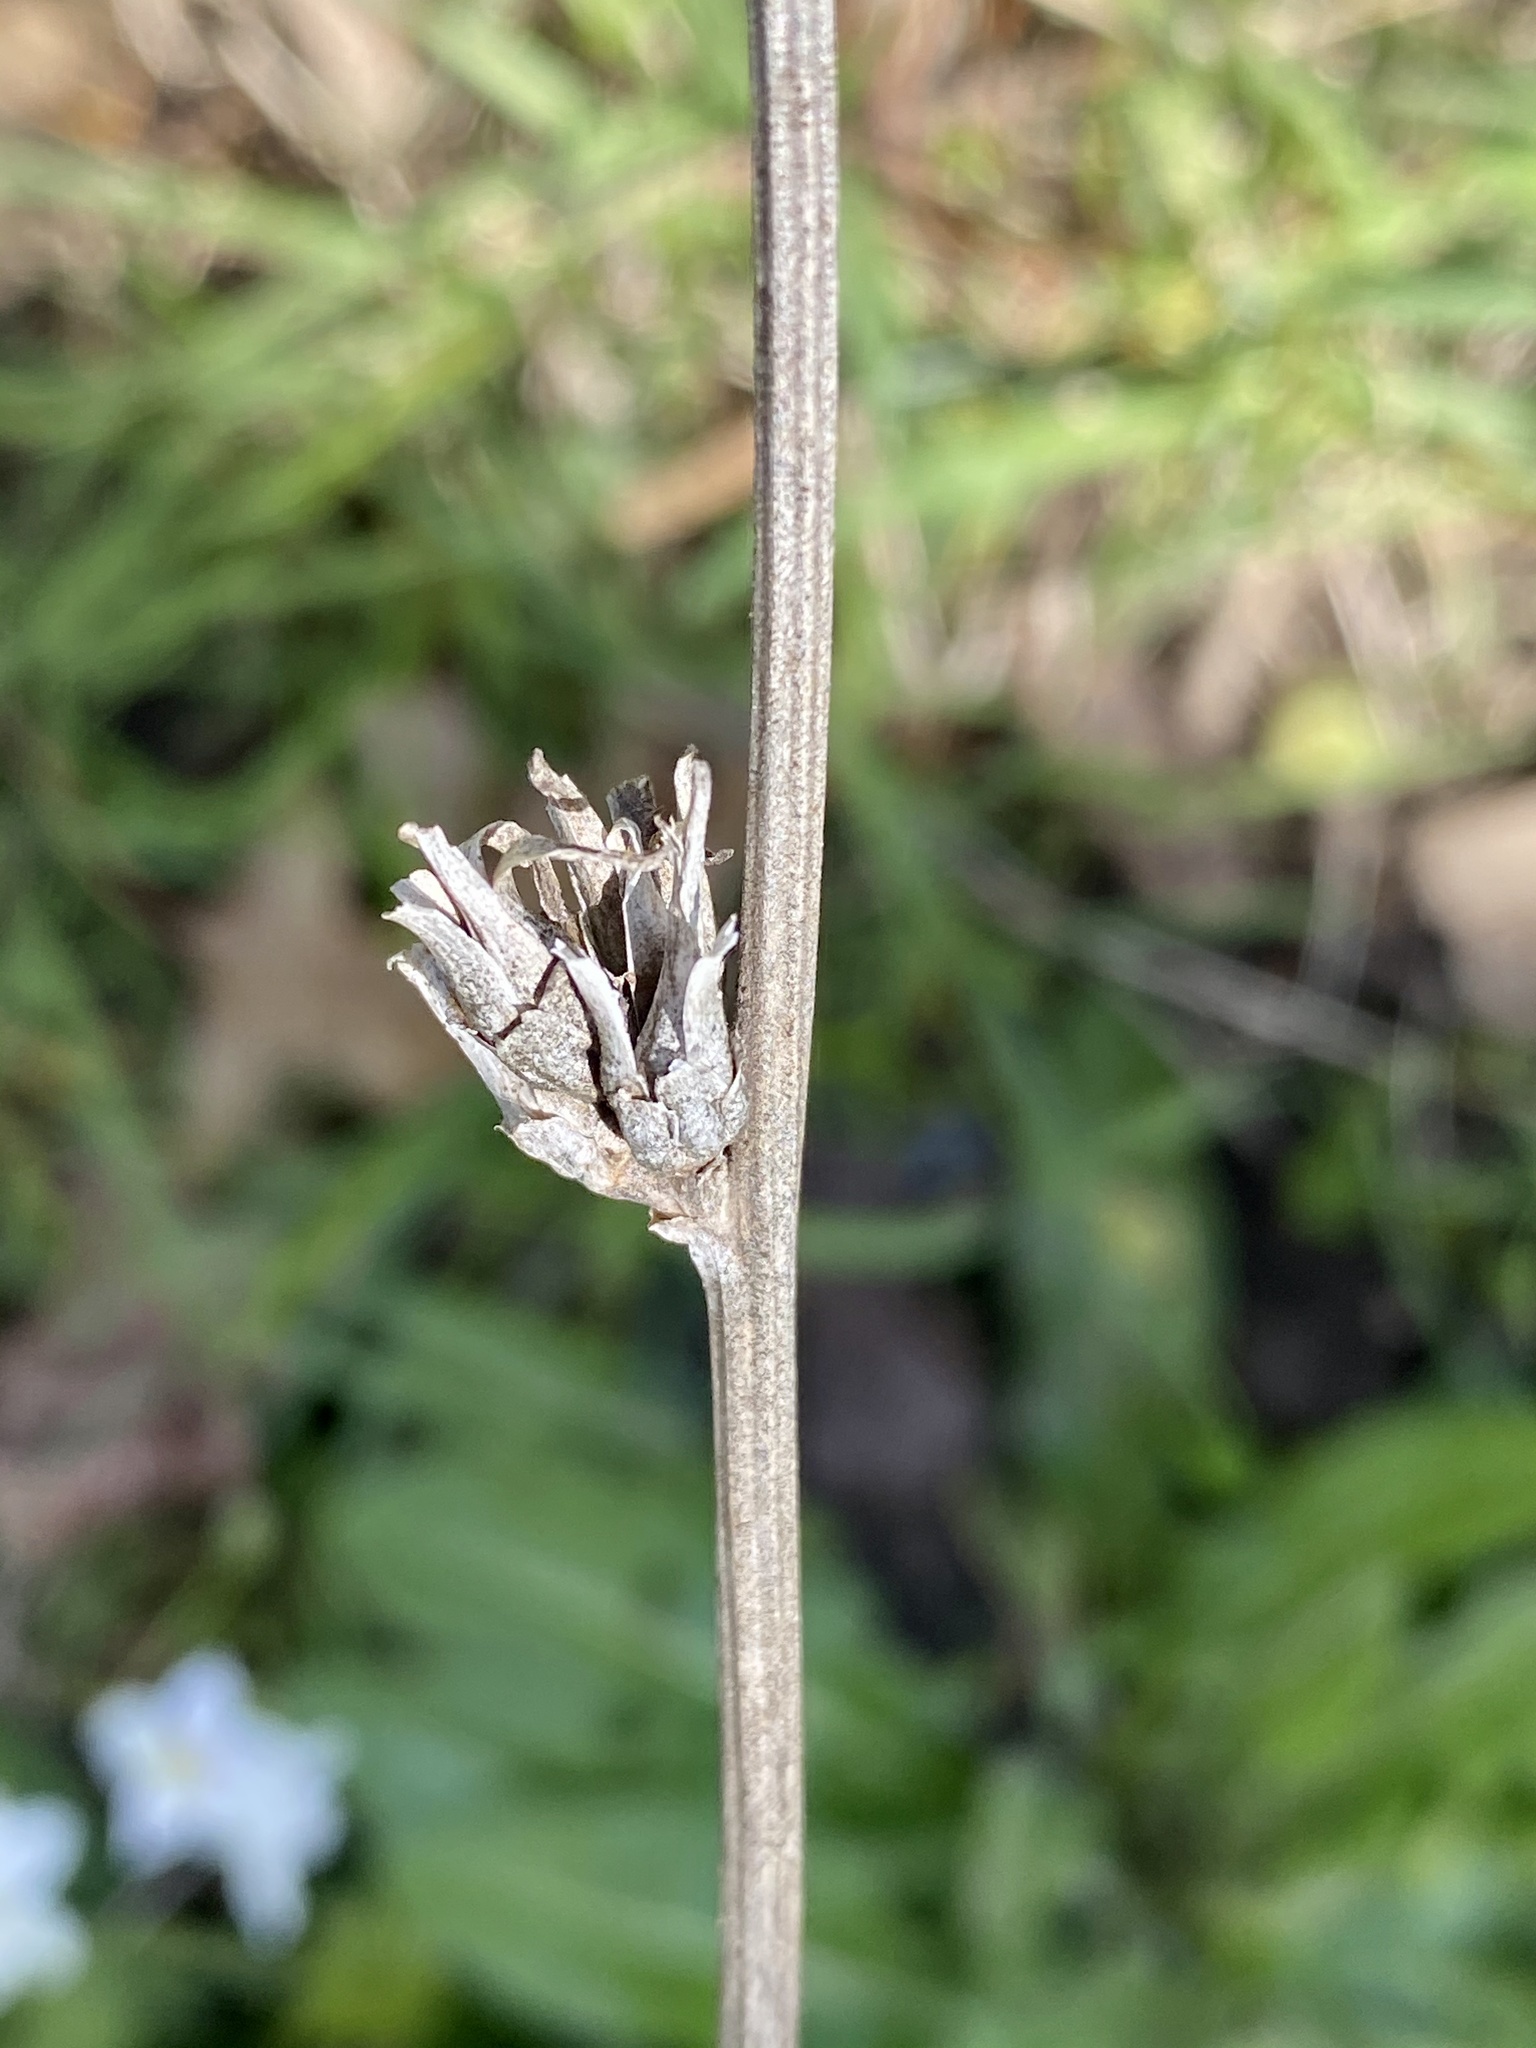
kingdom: Plantae
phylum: Tracheophyta
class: Magnoliopsida
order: Asterales
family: Asteraceae
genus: Cichorium
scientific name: Cichorium intybus
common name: Chicory
